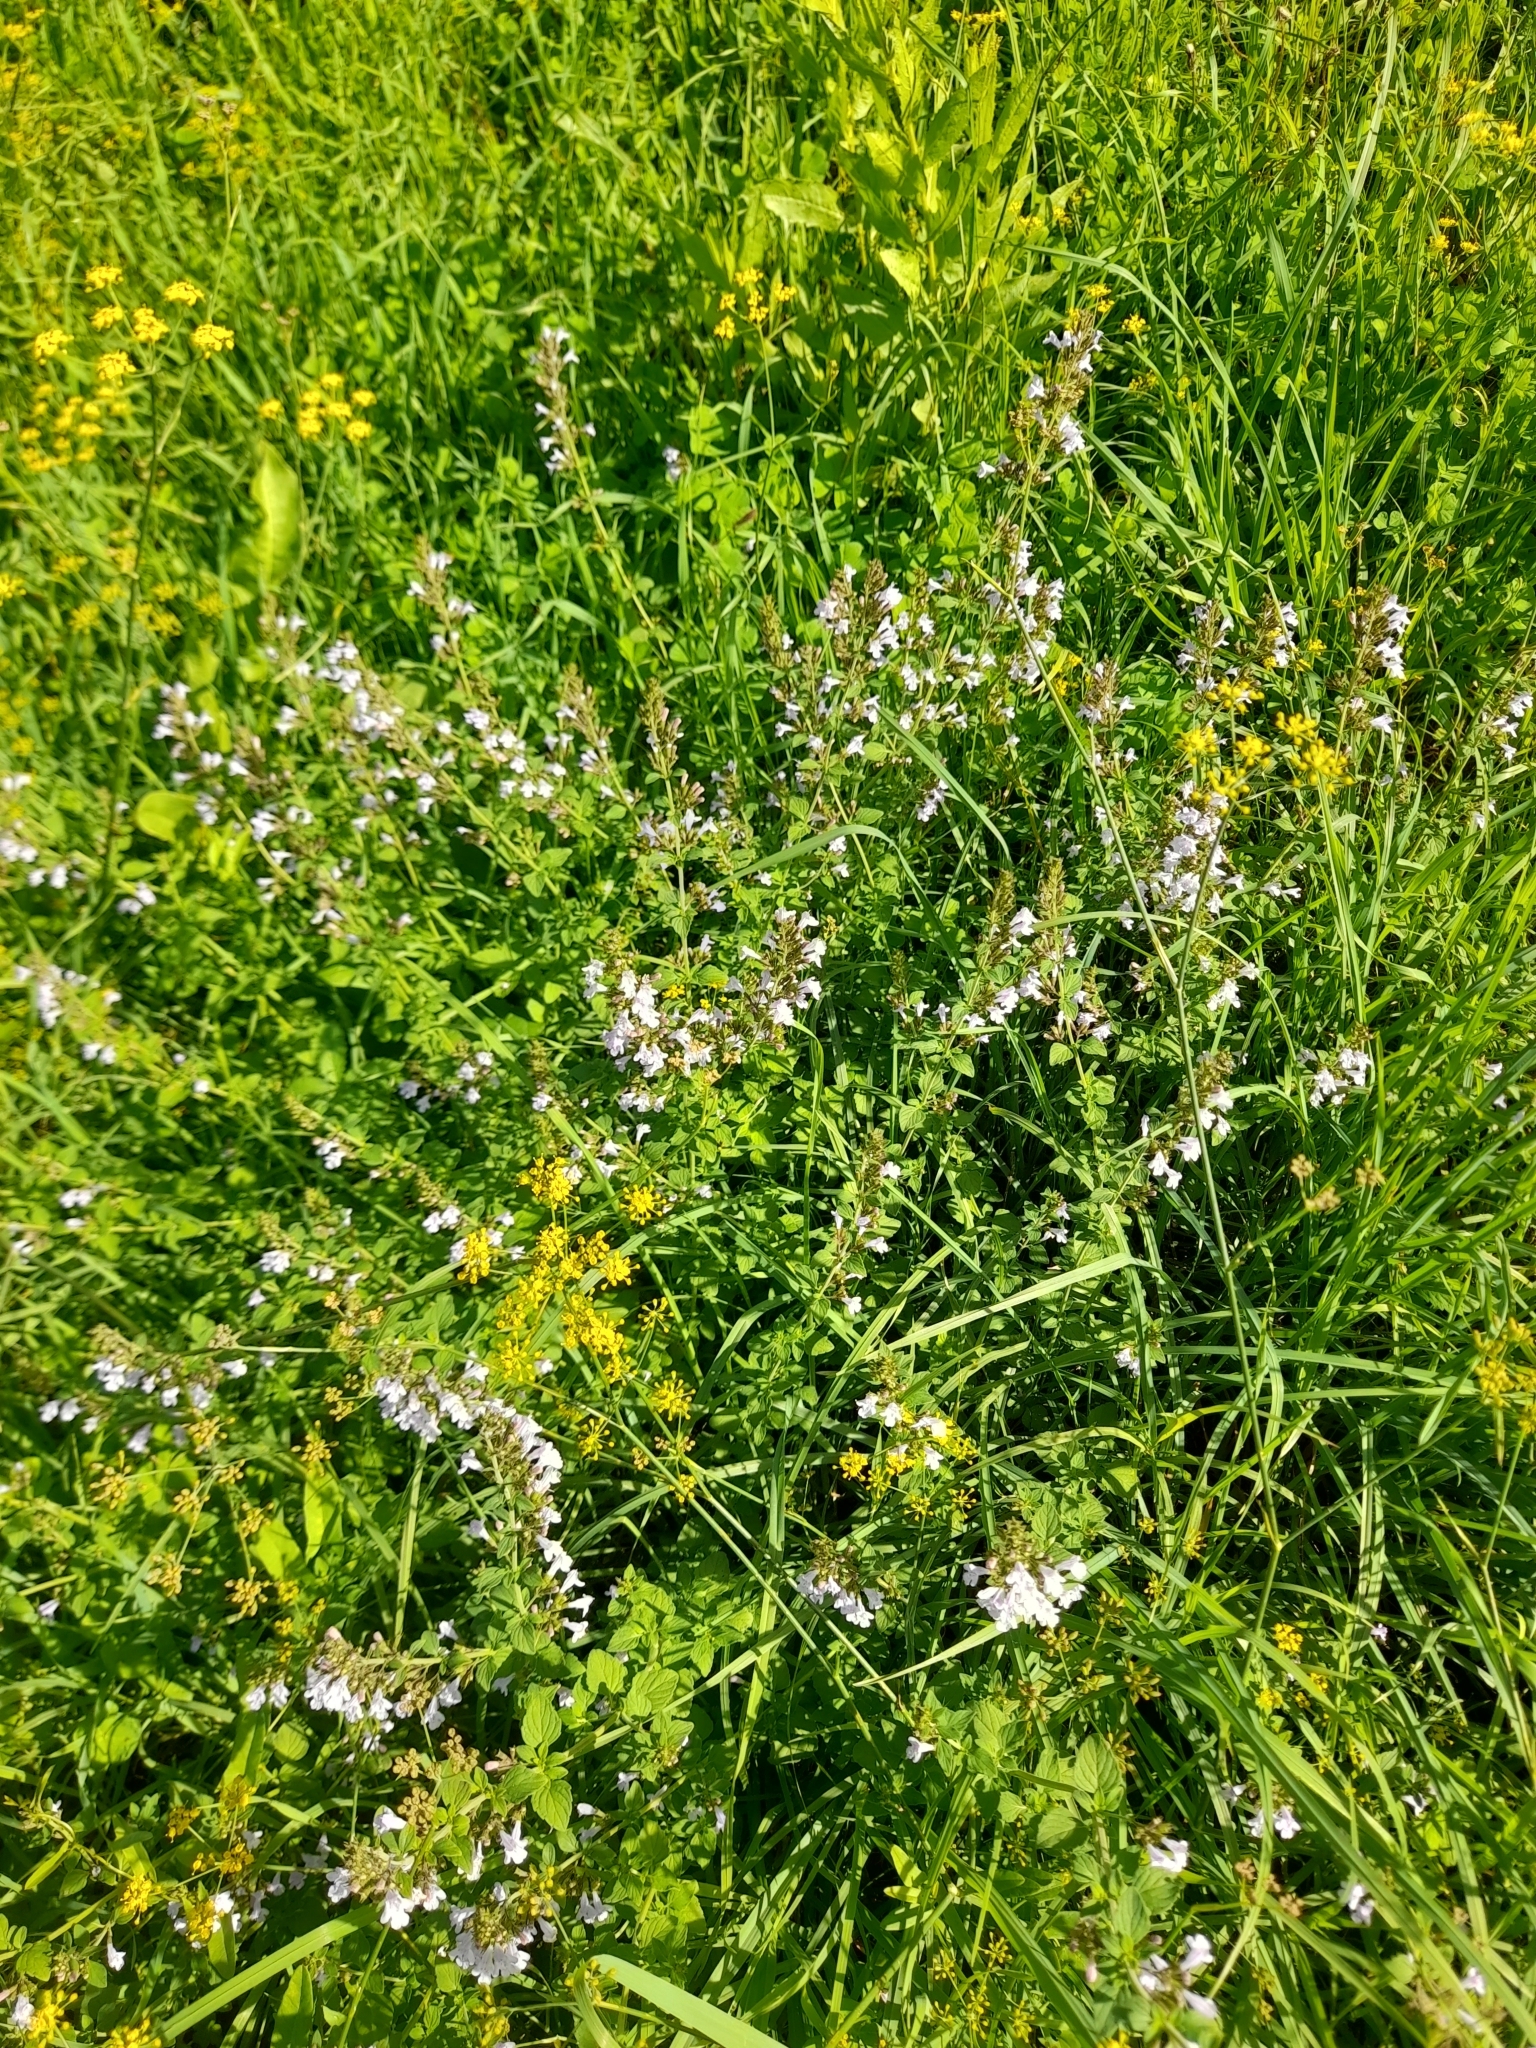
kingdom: Plantae
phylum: Tracheophyta
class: Magnoliopsida
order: Lamiales
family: Lamiaceae
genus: Clinopodium
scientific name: Clinopodium nepeta
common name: Lesser calamint
